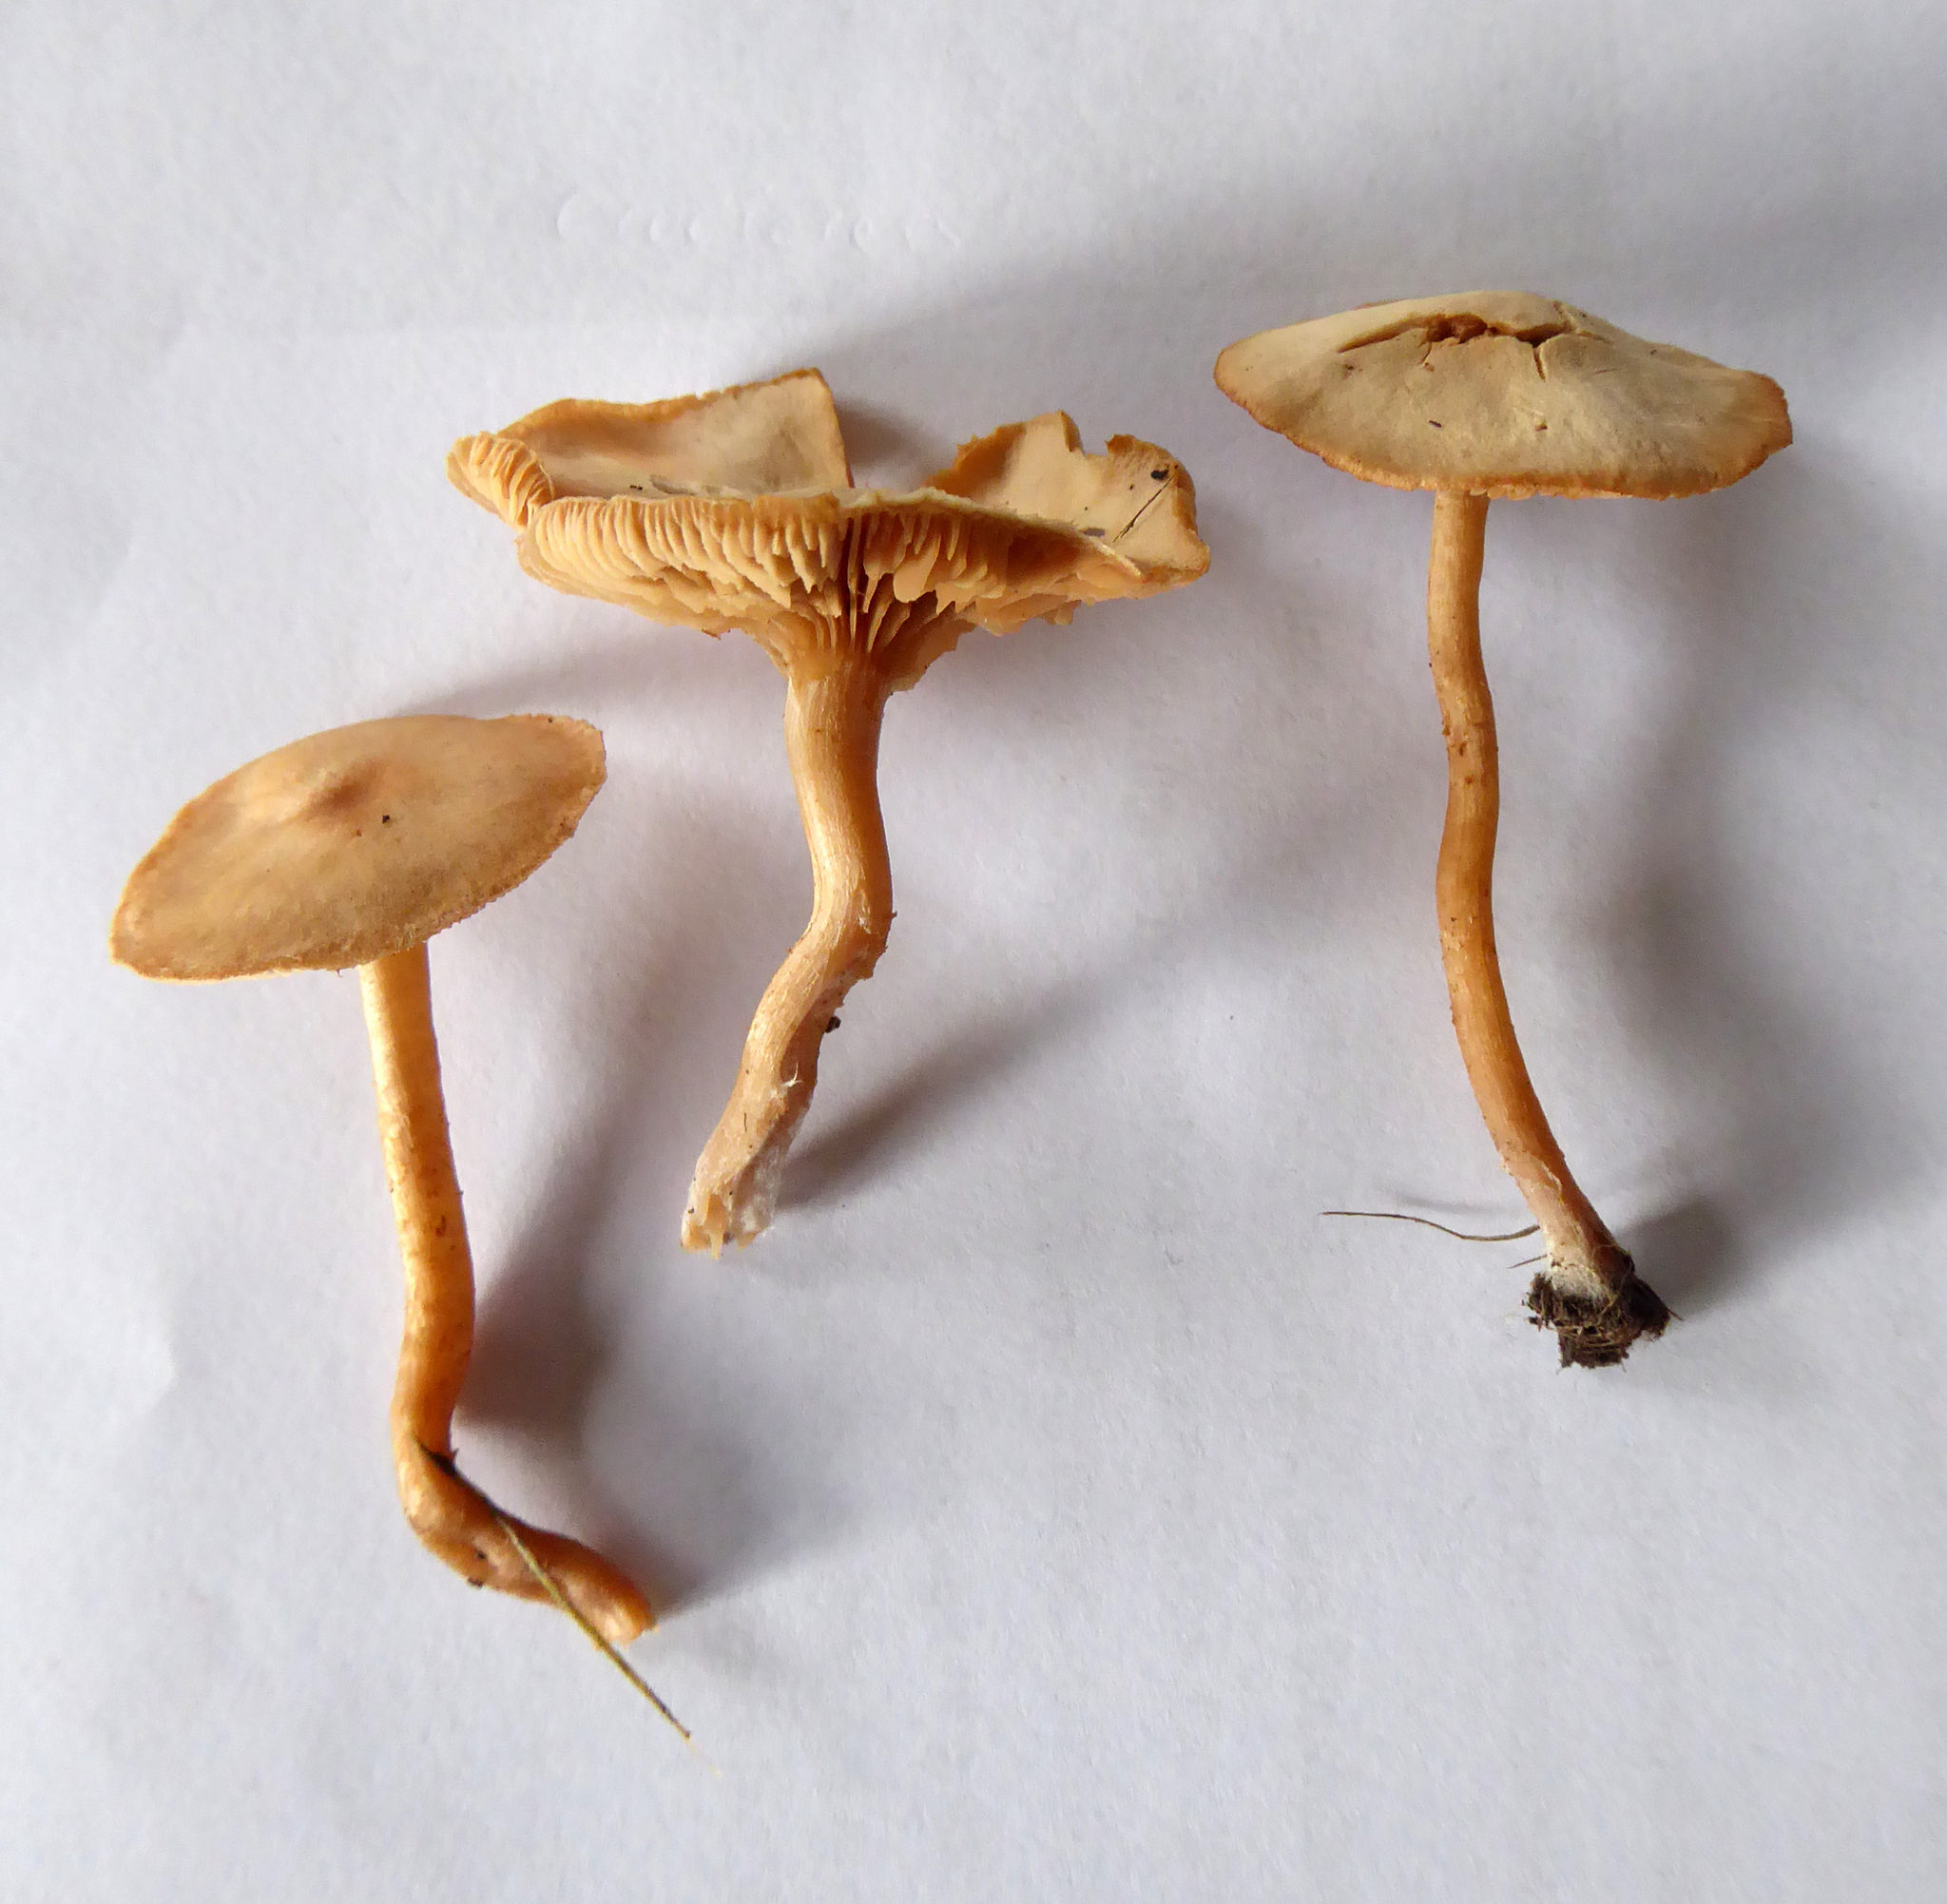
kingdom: Fungi
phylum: Basidiomycota
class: Agaricomycetes
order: Agaricales
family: Tubariaceae
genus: Tubaria
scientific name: Tubaria furfuracea
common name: Scurfy twiglet
